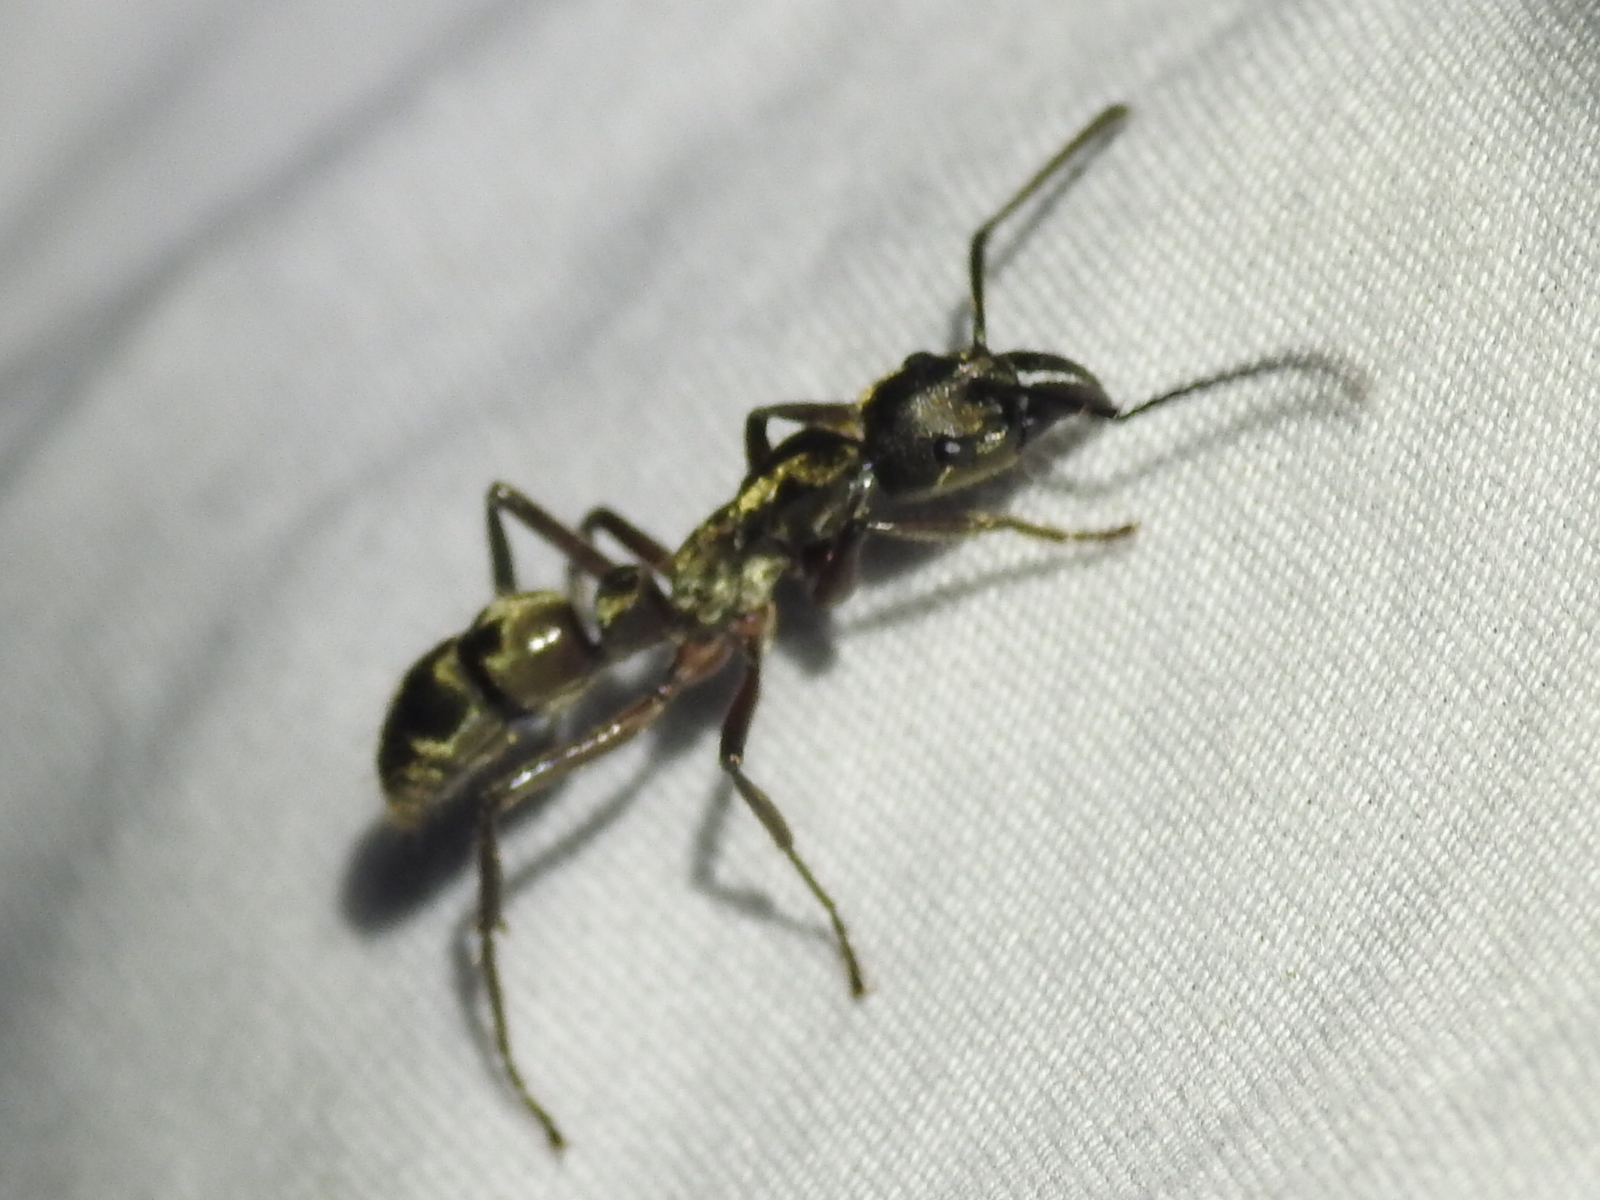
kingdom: Animalia
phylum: Arthropoda
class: Insecta
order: Hymenoptera
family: Formicidae
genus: Pachycondyla
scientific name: Pachycondyla villosa
